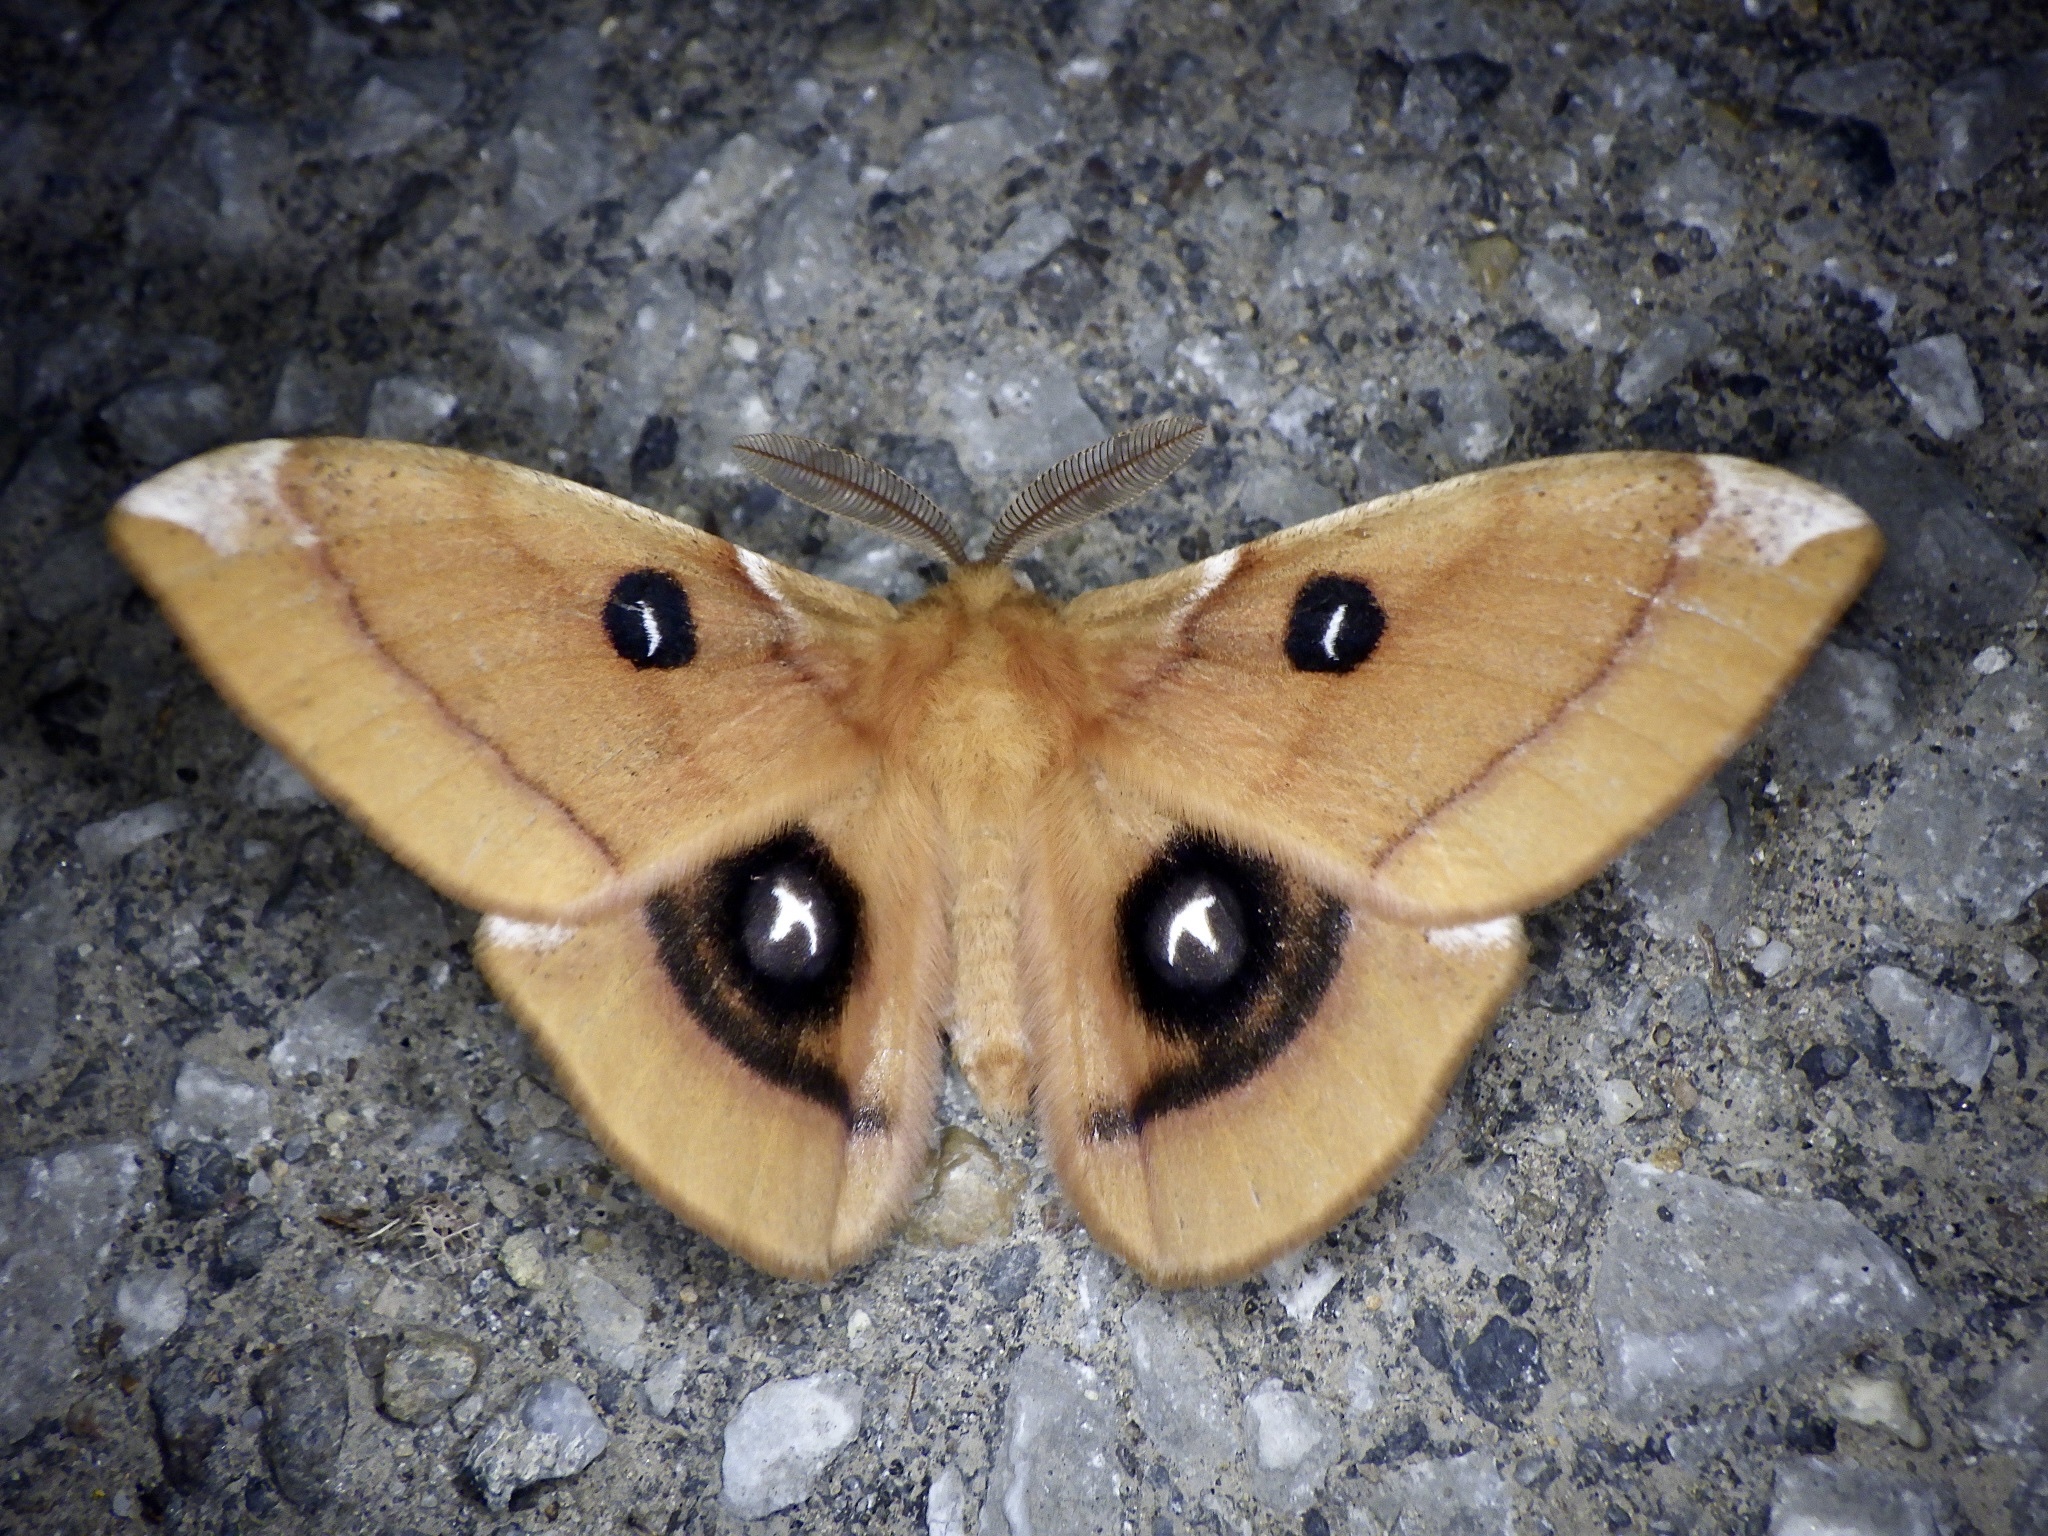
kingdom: Animalia
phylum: Arthropoda
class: Insecta
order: Lepidoptera
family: Saturniidae
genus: Aglia
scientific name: Aglia japonica
